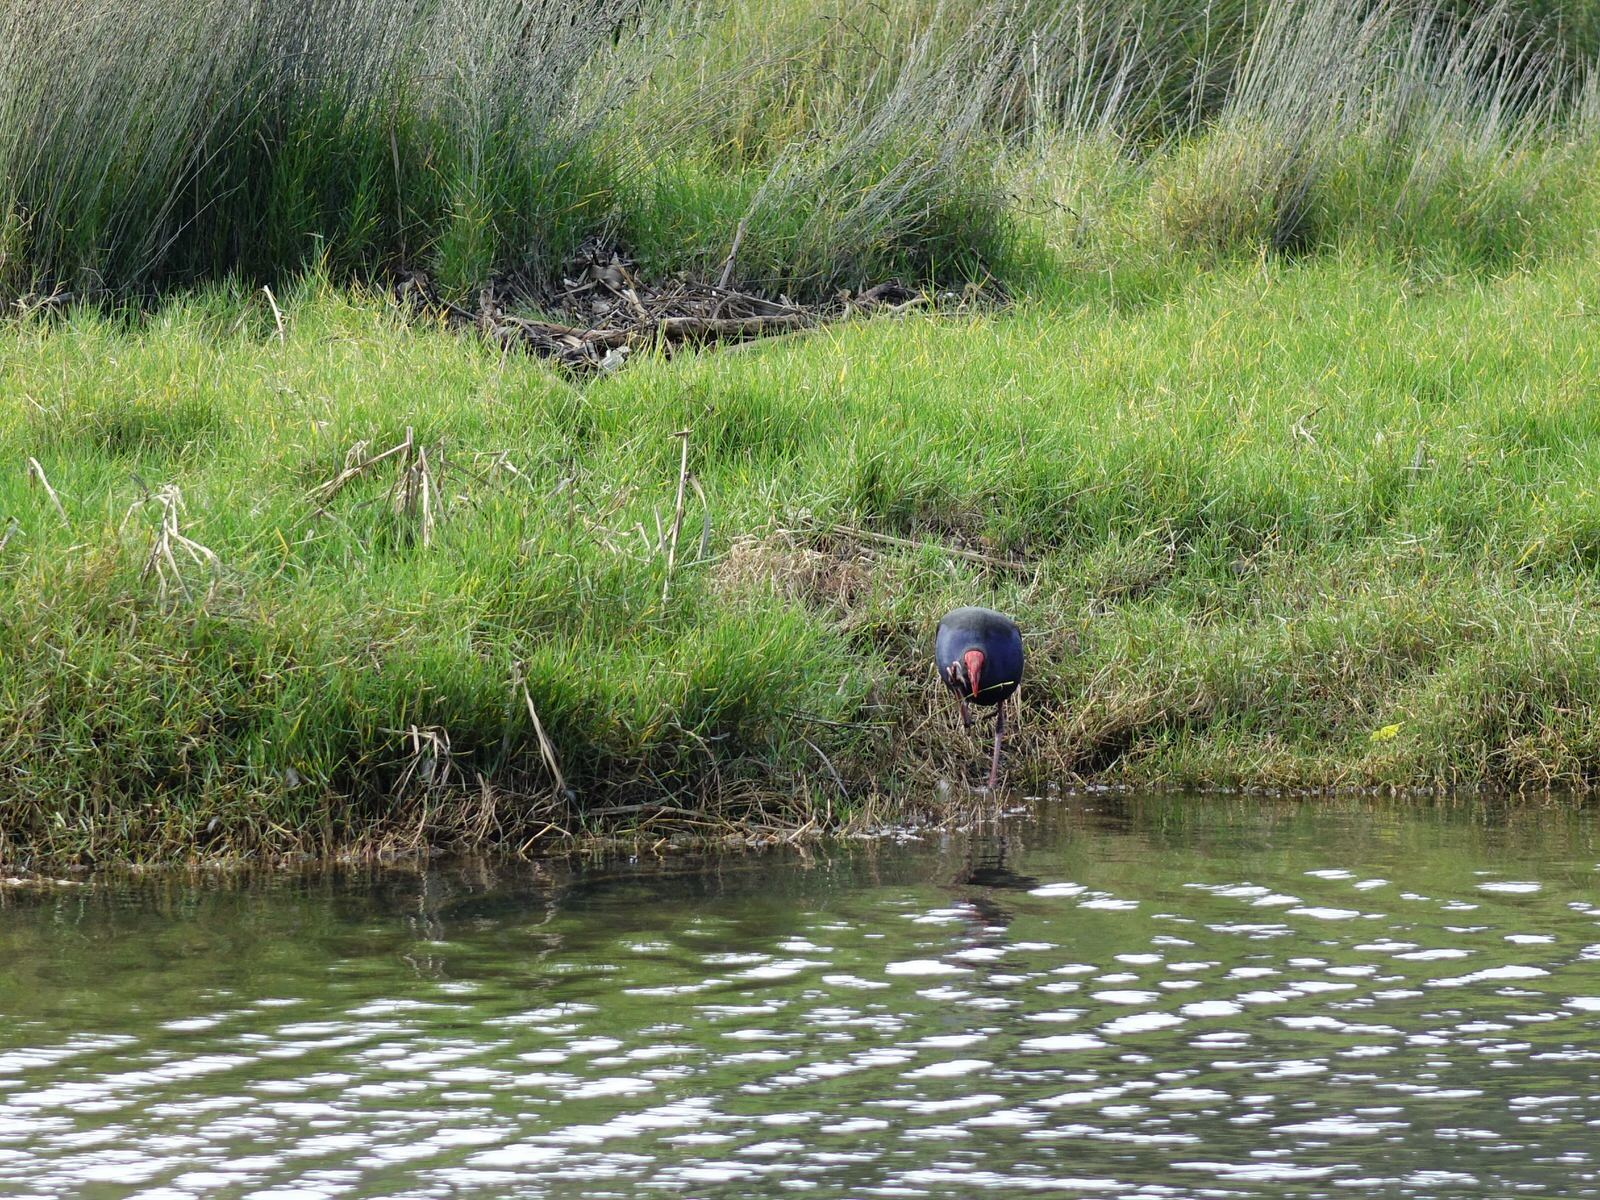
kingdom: Animalia
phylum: Chordata
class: Aves
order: Gruiformes
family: Rallidae
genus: Porphyrio
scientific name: Porphyrio melanotus
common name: Australasian swamphen
